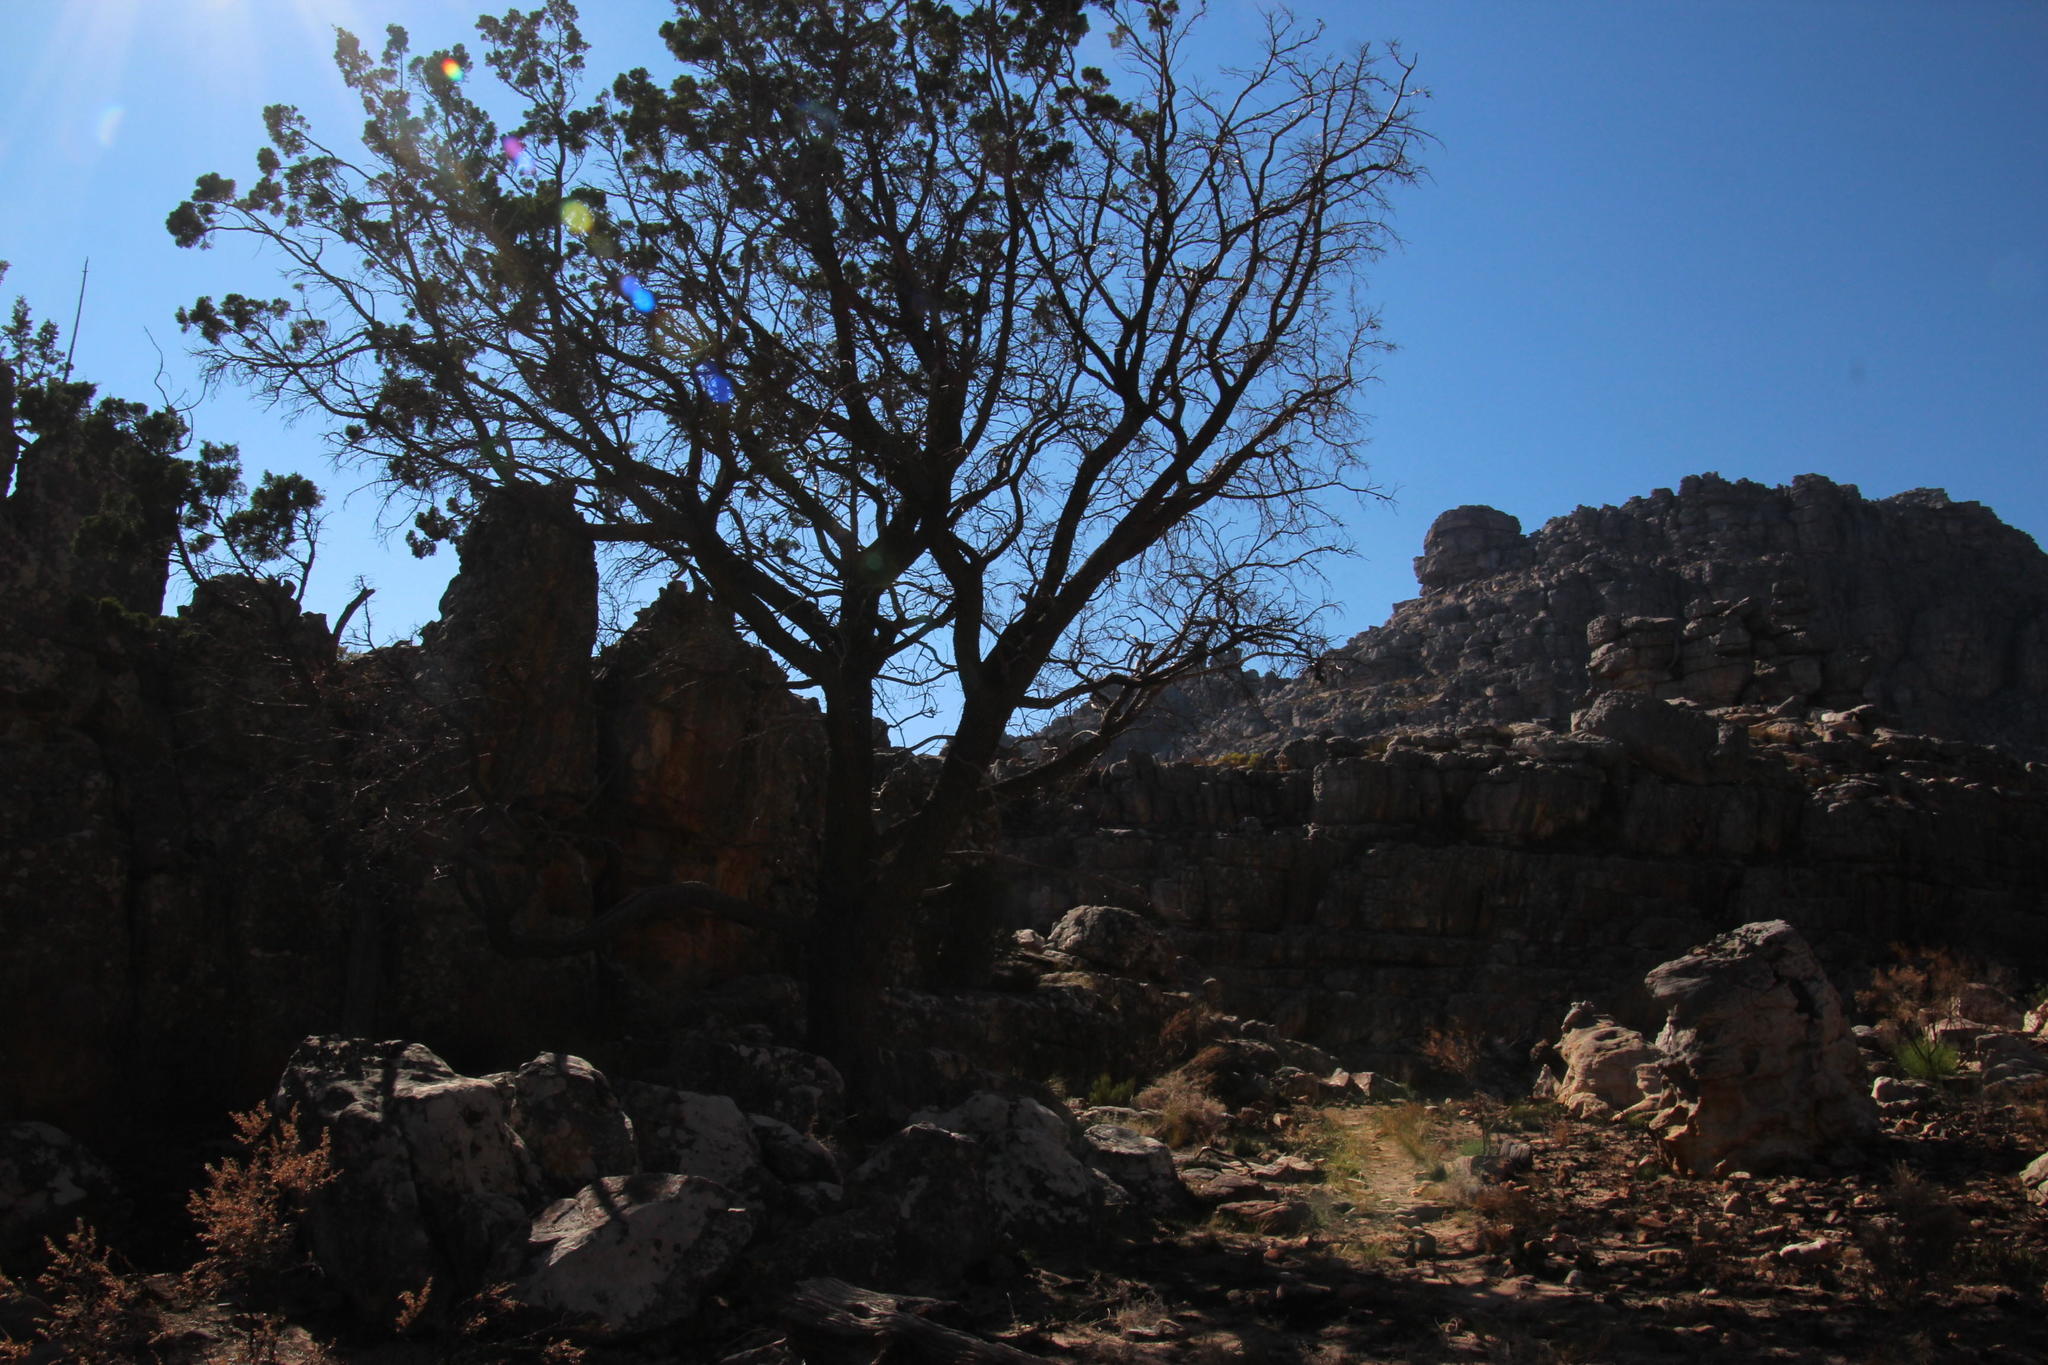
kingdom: Plantae
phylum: Tracheophyta
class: Pinopsida
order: Pinales
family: Cupressaceae
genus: Widdringtonia
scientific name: Widdringtonia nodiflora
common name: Cape cypress
